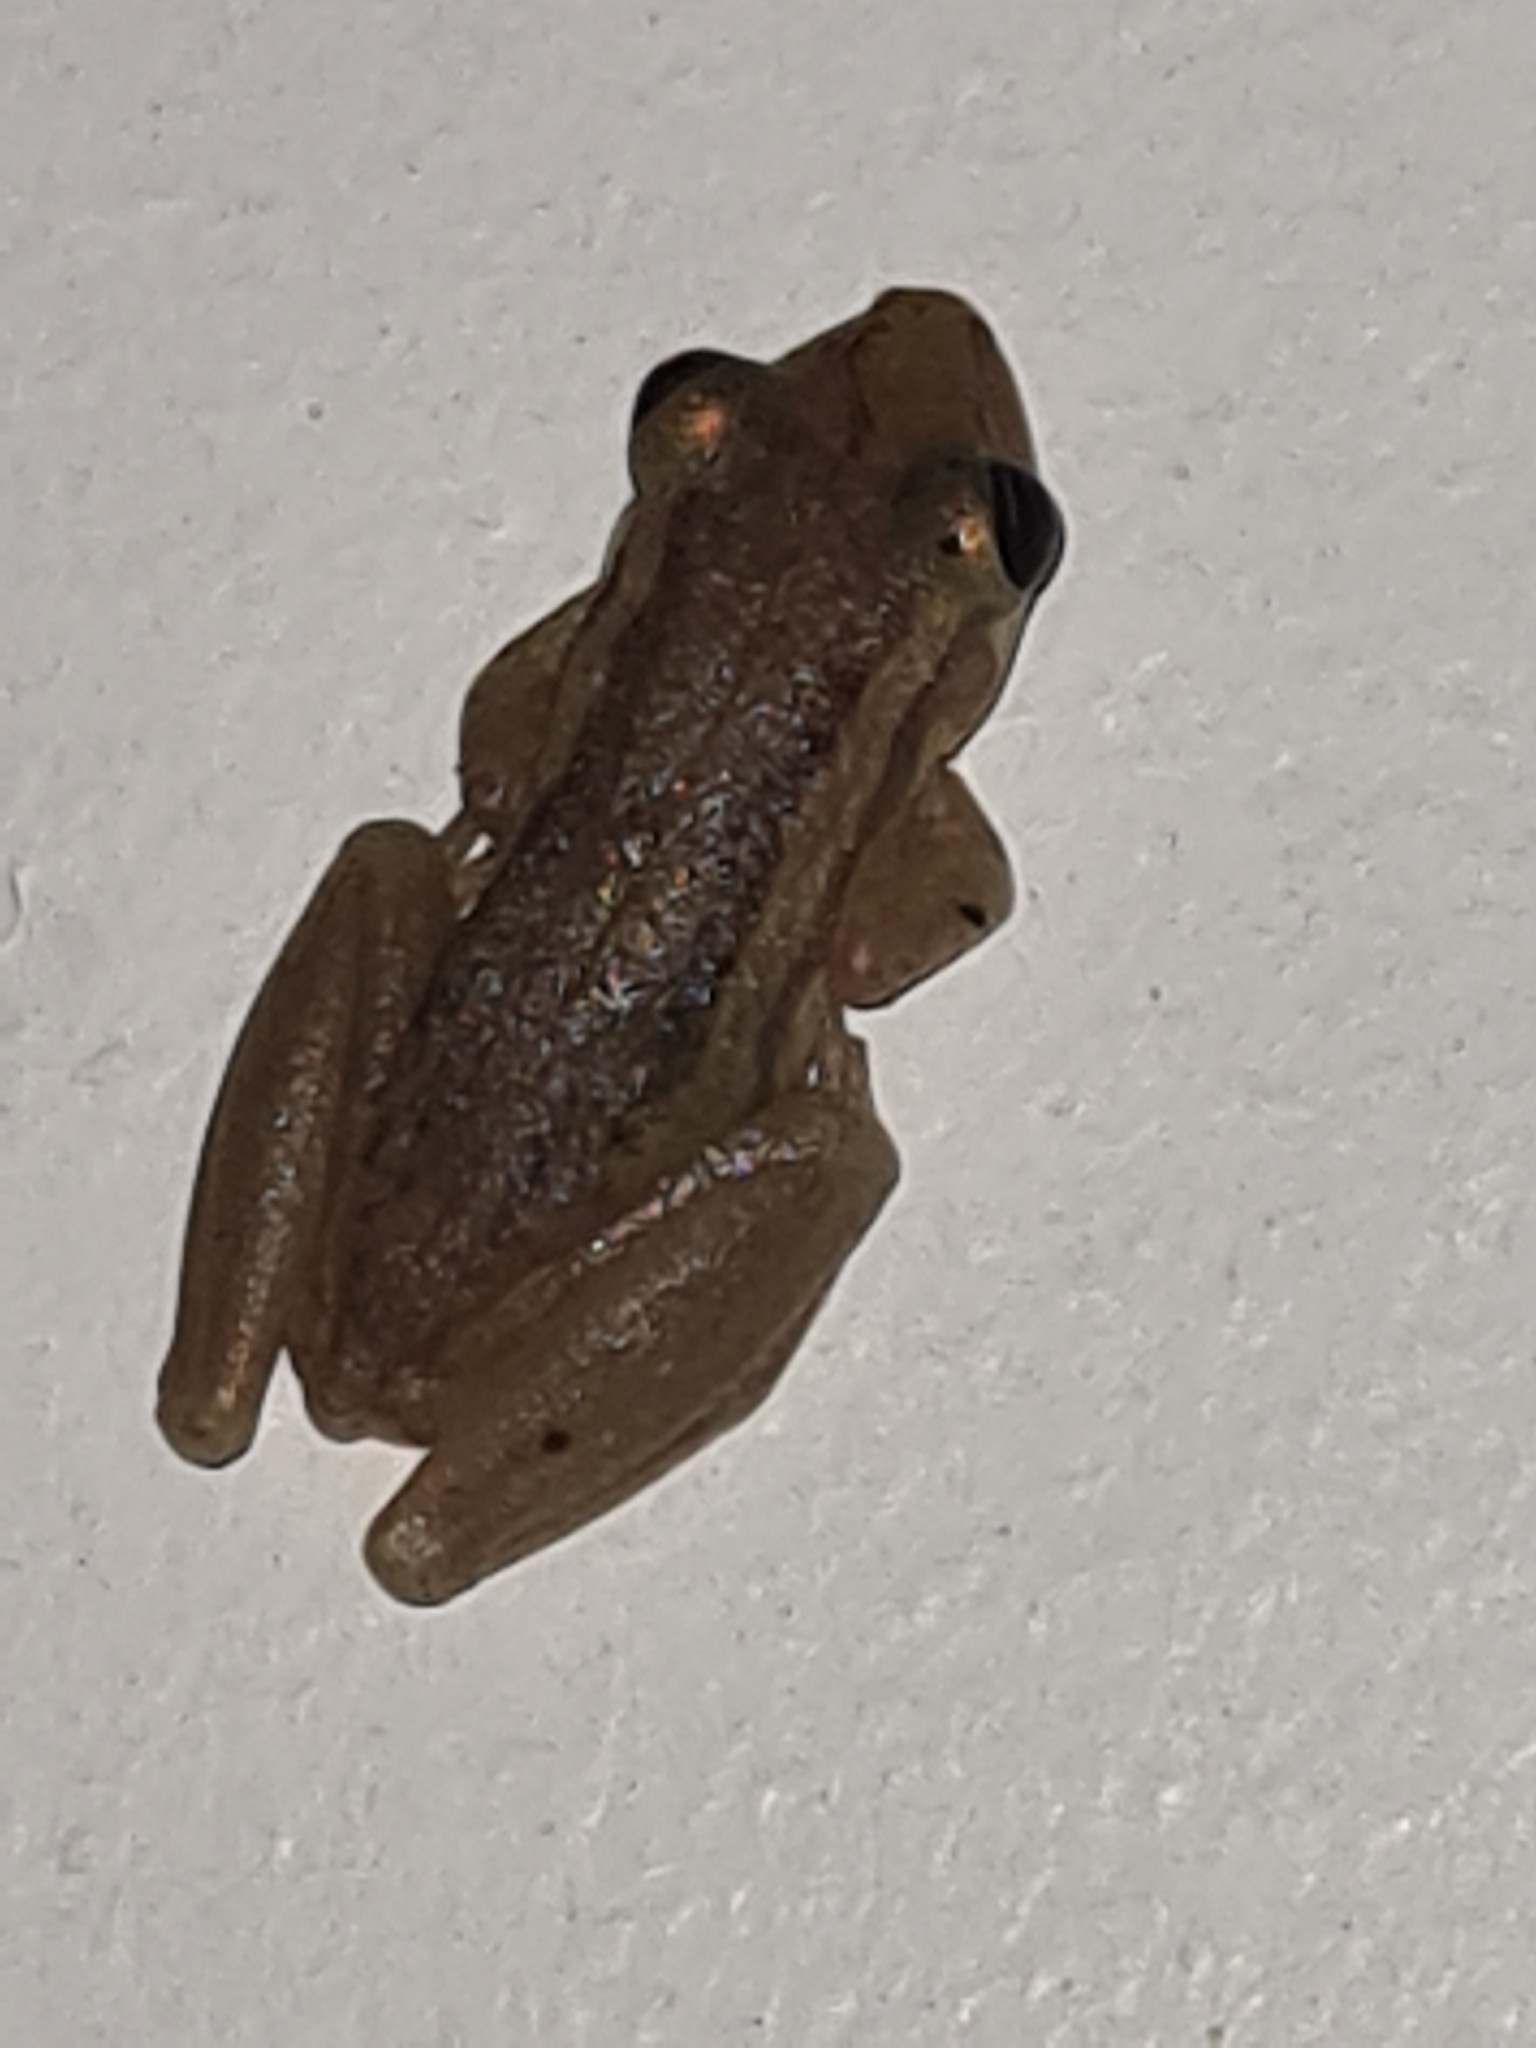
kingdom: Animalia
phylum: Chordata
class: Amphibia
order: Anura
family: Hylidae
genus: Scinax
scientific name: Scinax ruber
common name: Red snouted treefrog
